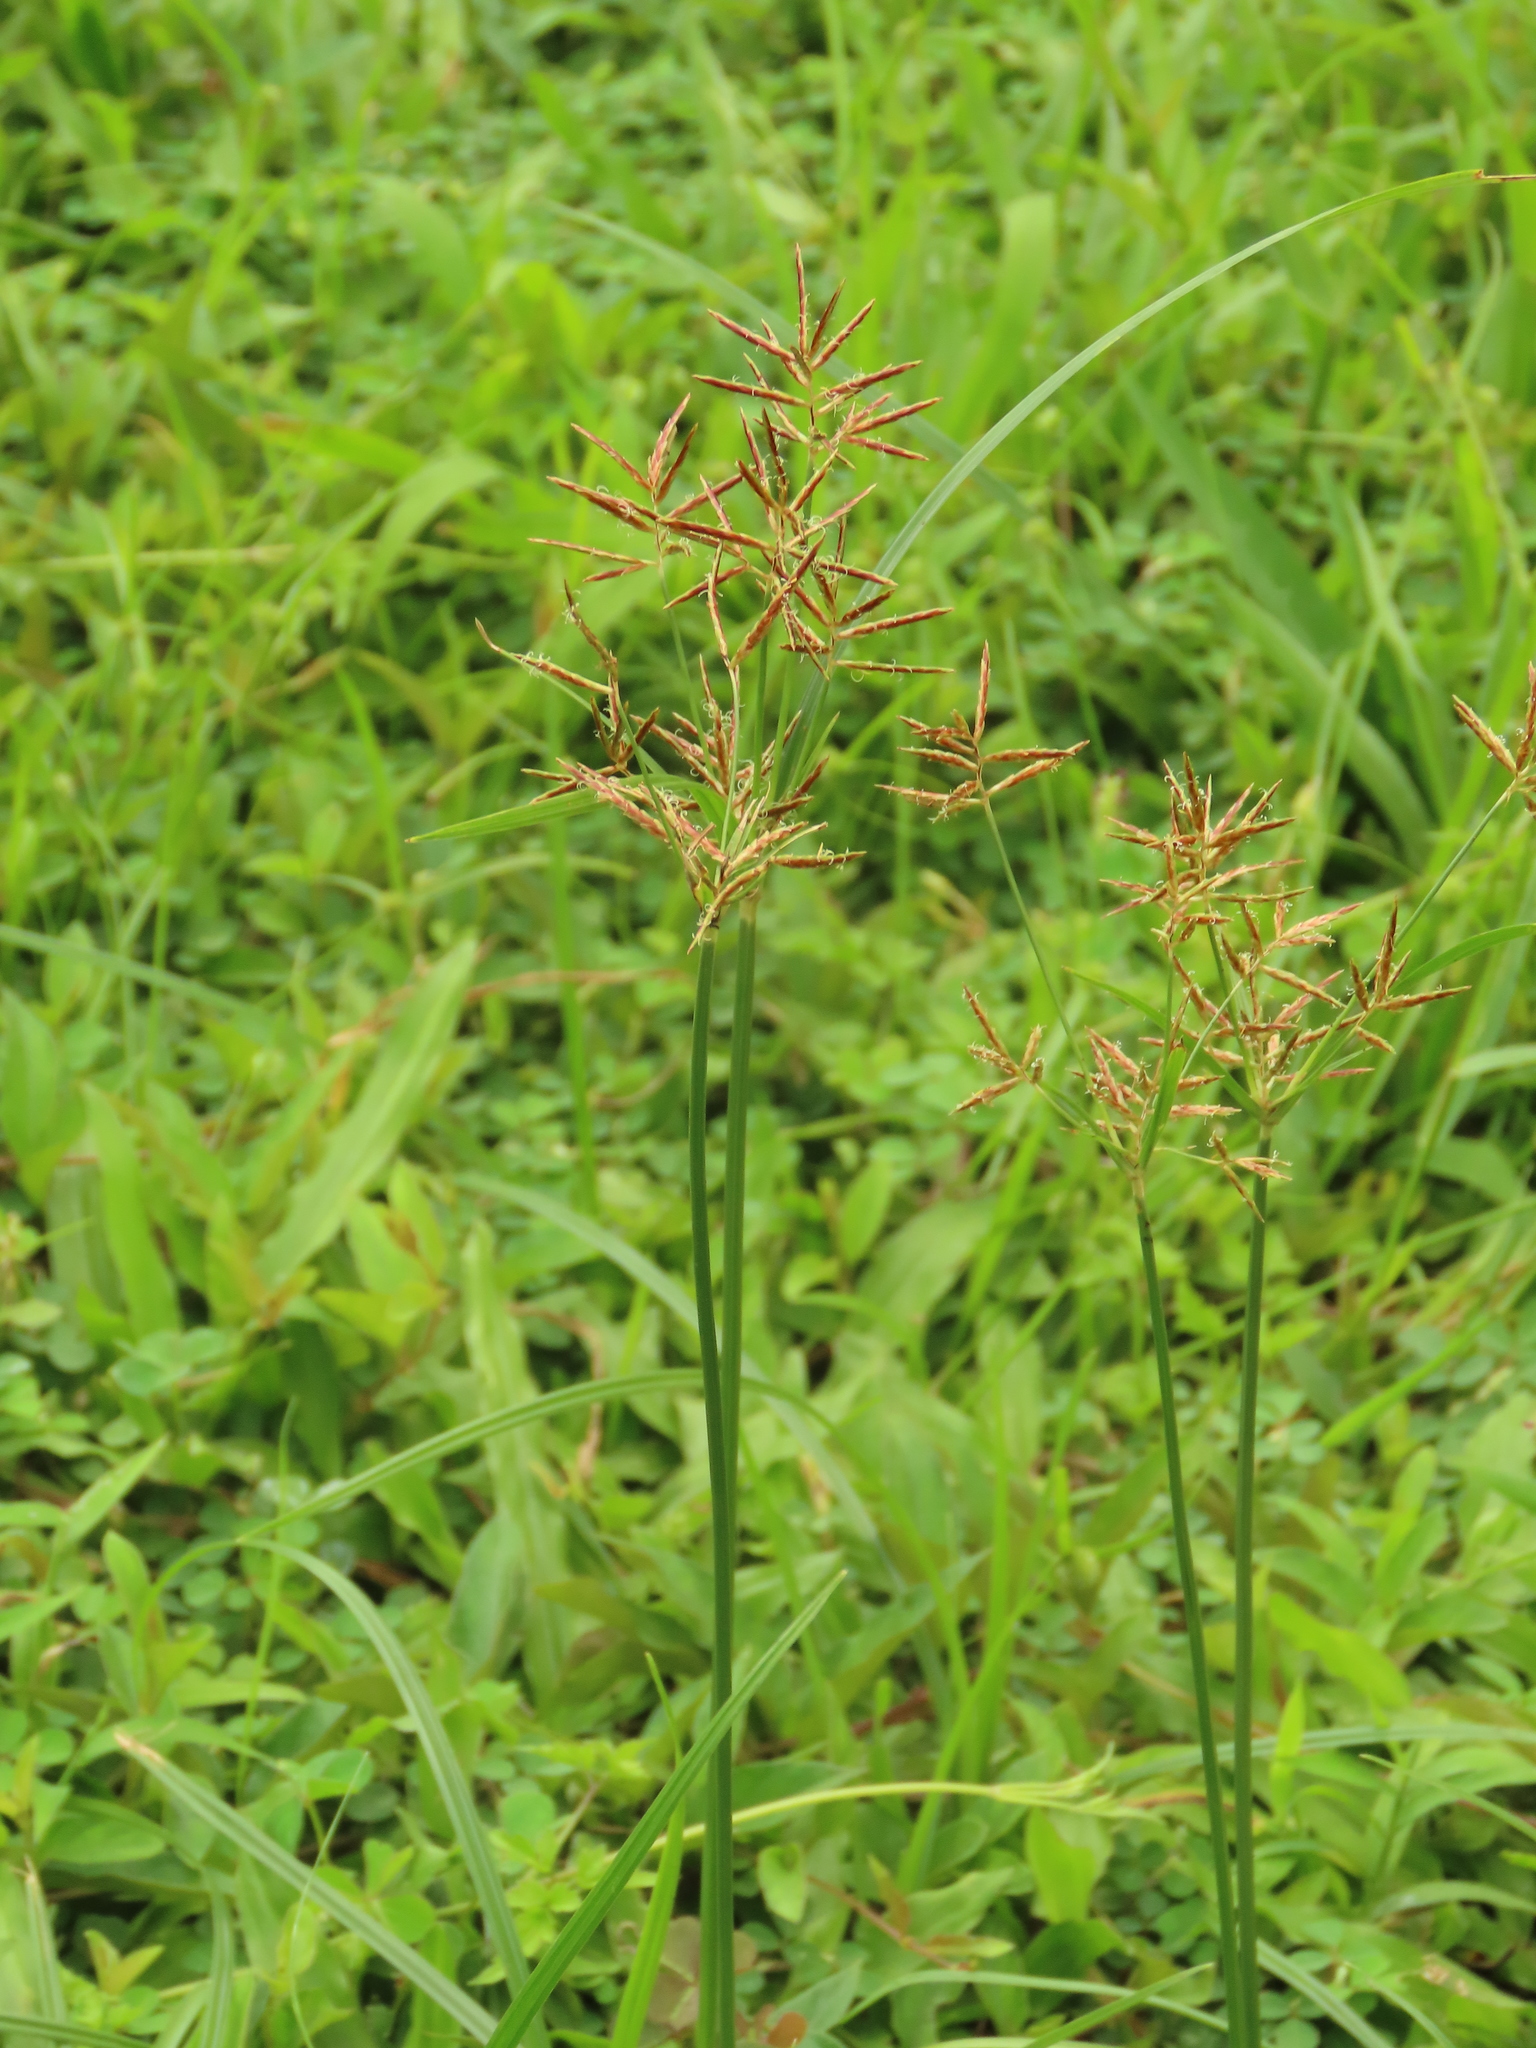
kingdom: Plantae
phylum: Tracheophyta
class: Liliopsida
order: Poales
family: Cyperaceae
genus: Cyperus
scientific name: Cyperus rotundus
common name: Nutgrass
